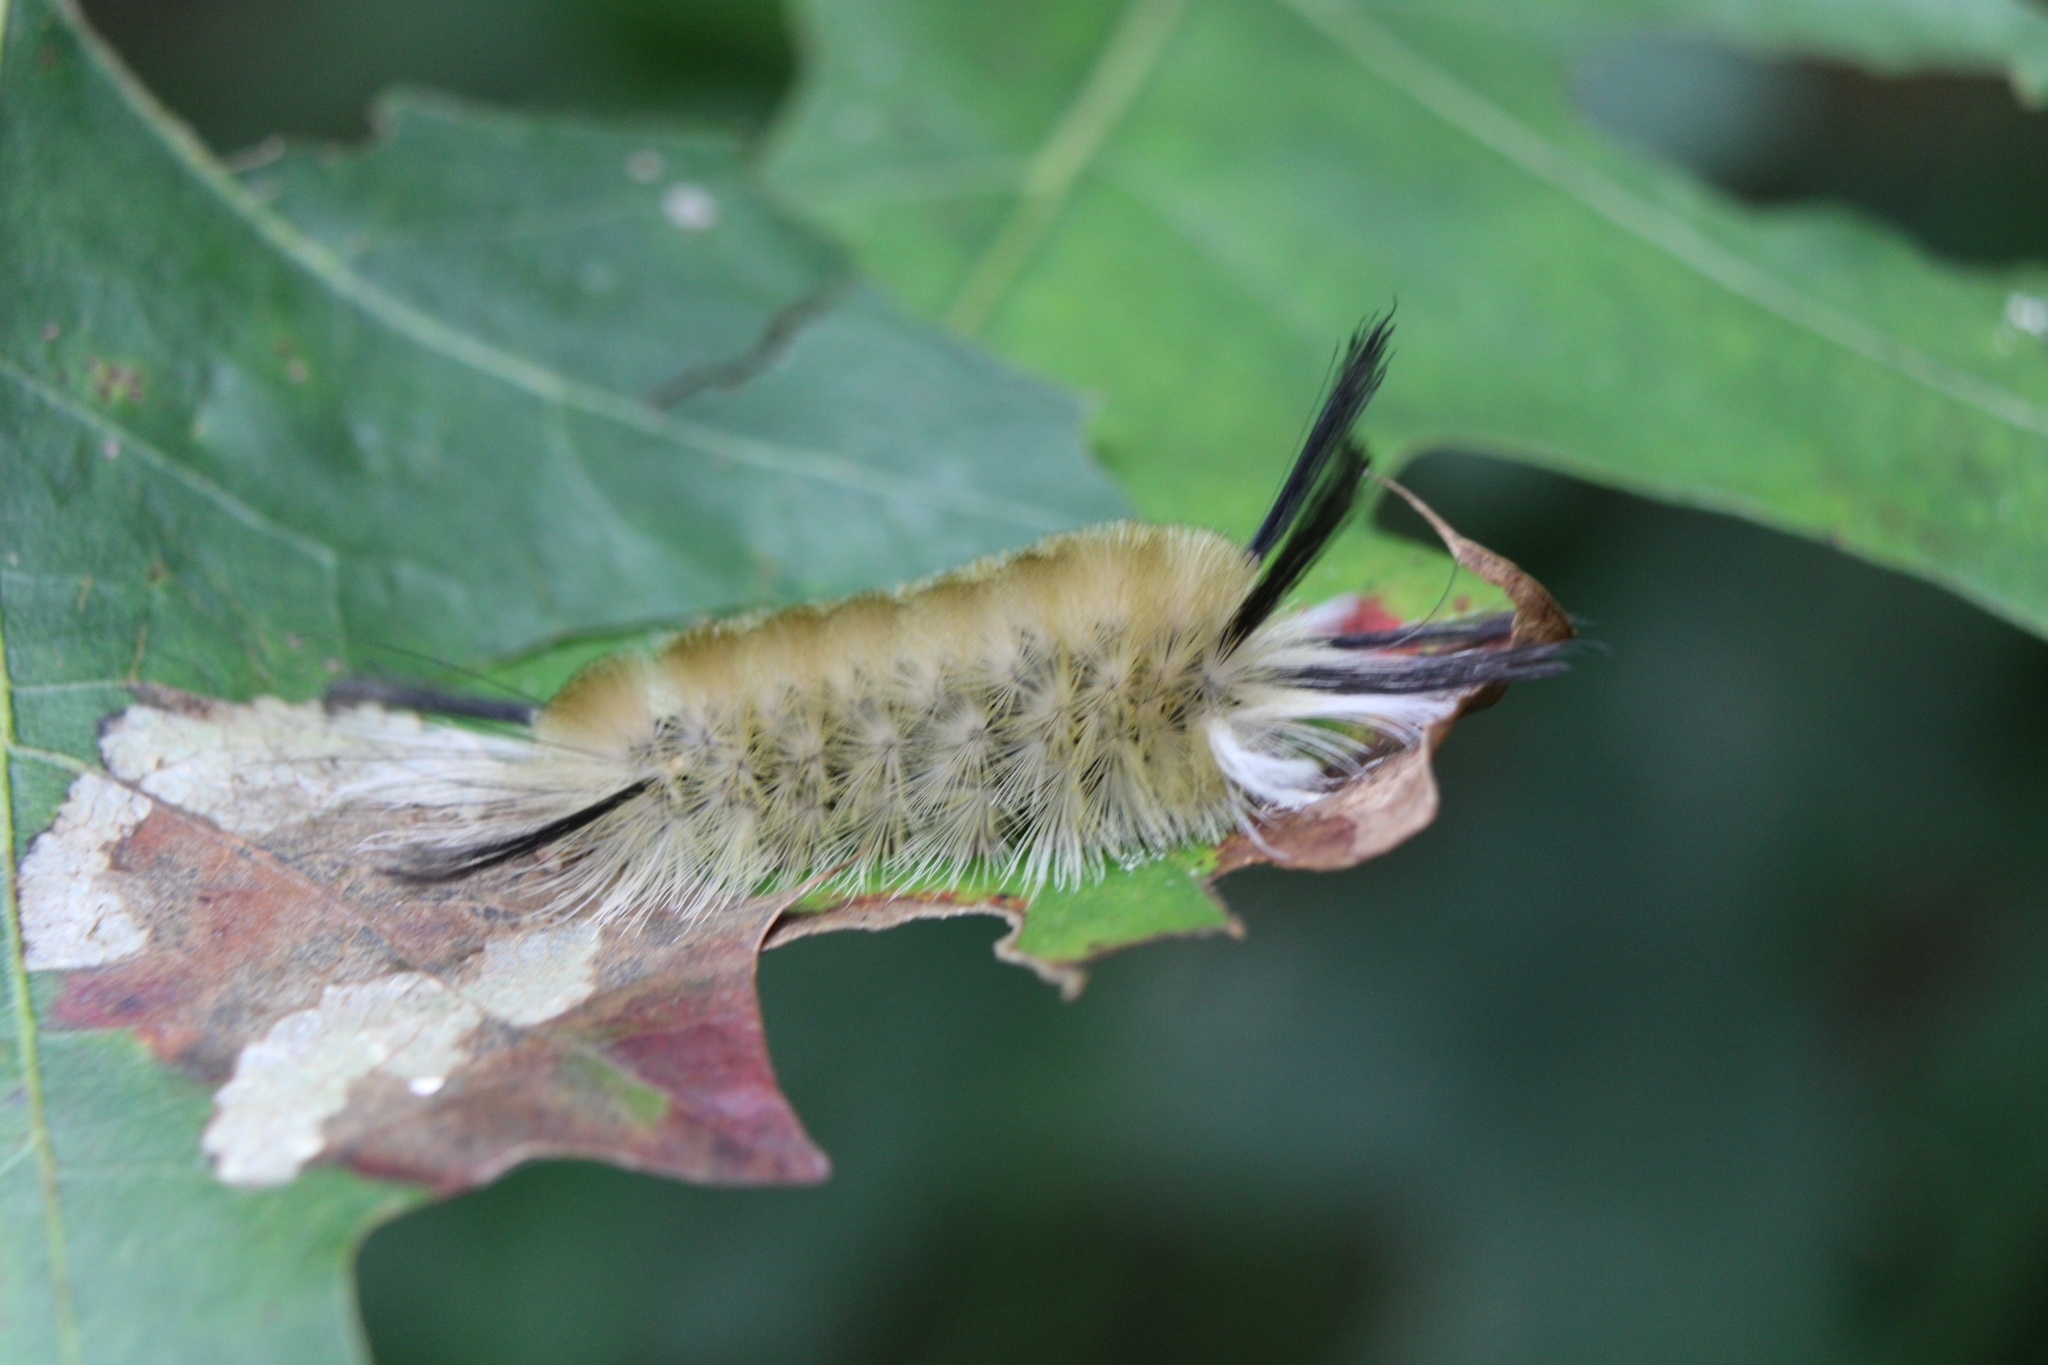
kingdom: Animalia
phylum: Arthropoda
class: Insecta
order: Lepidoptera
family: Erebidae
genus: Halysidota
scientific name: Halysidota tessellaris
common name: Banded tussock moth
